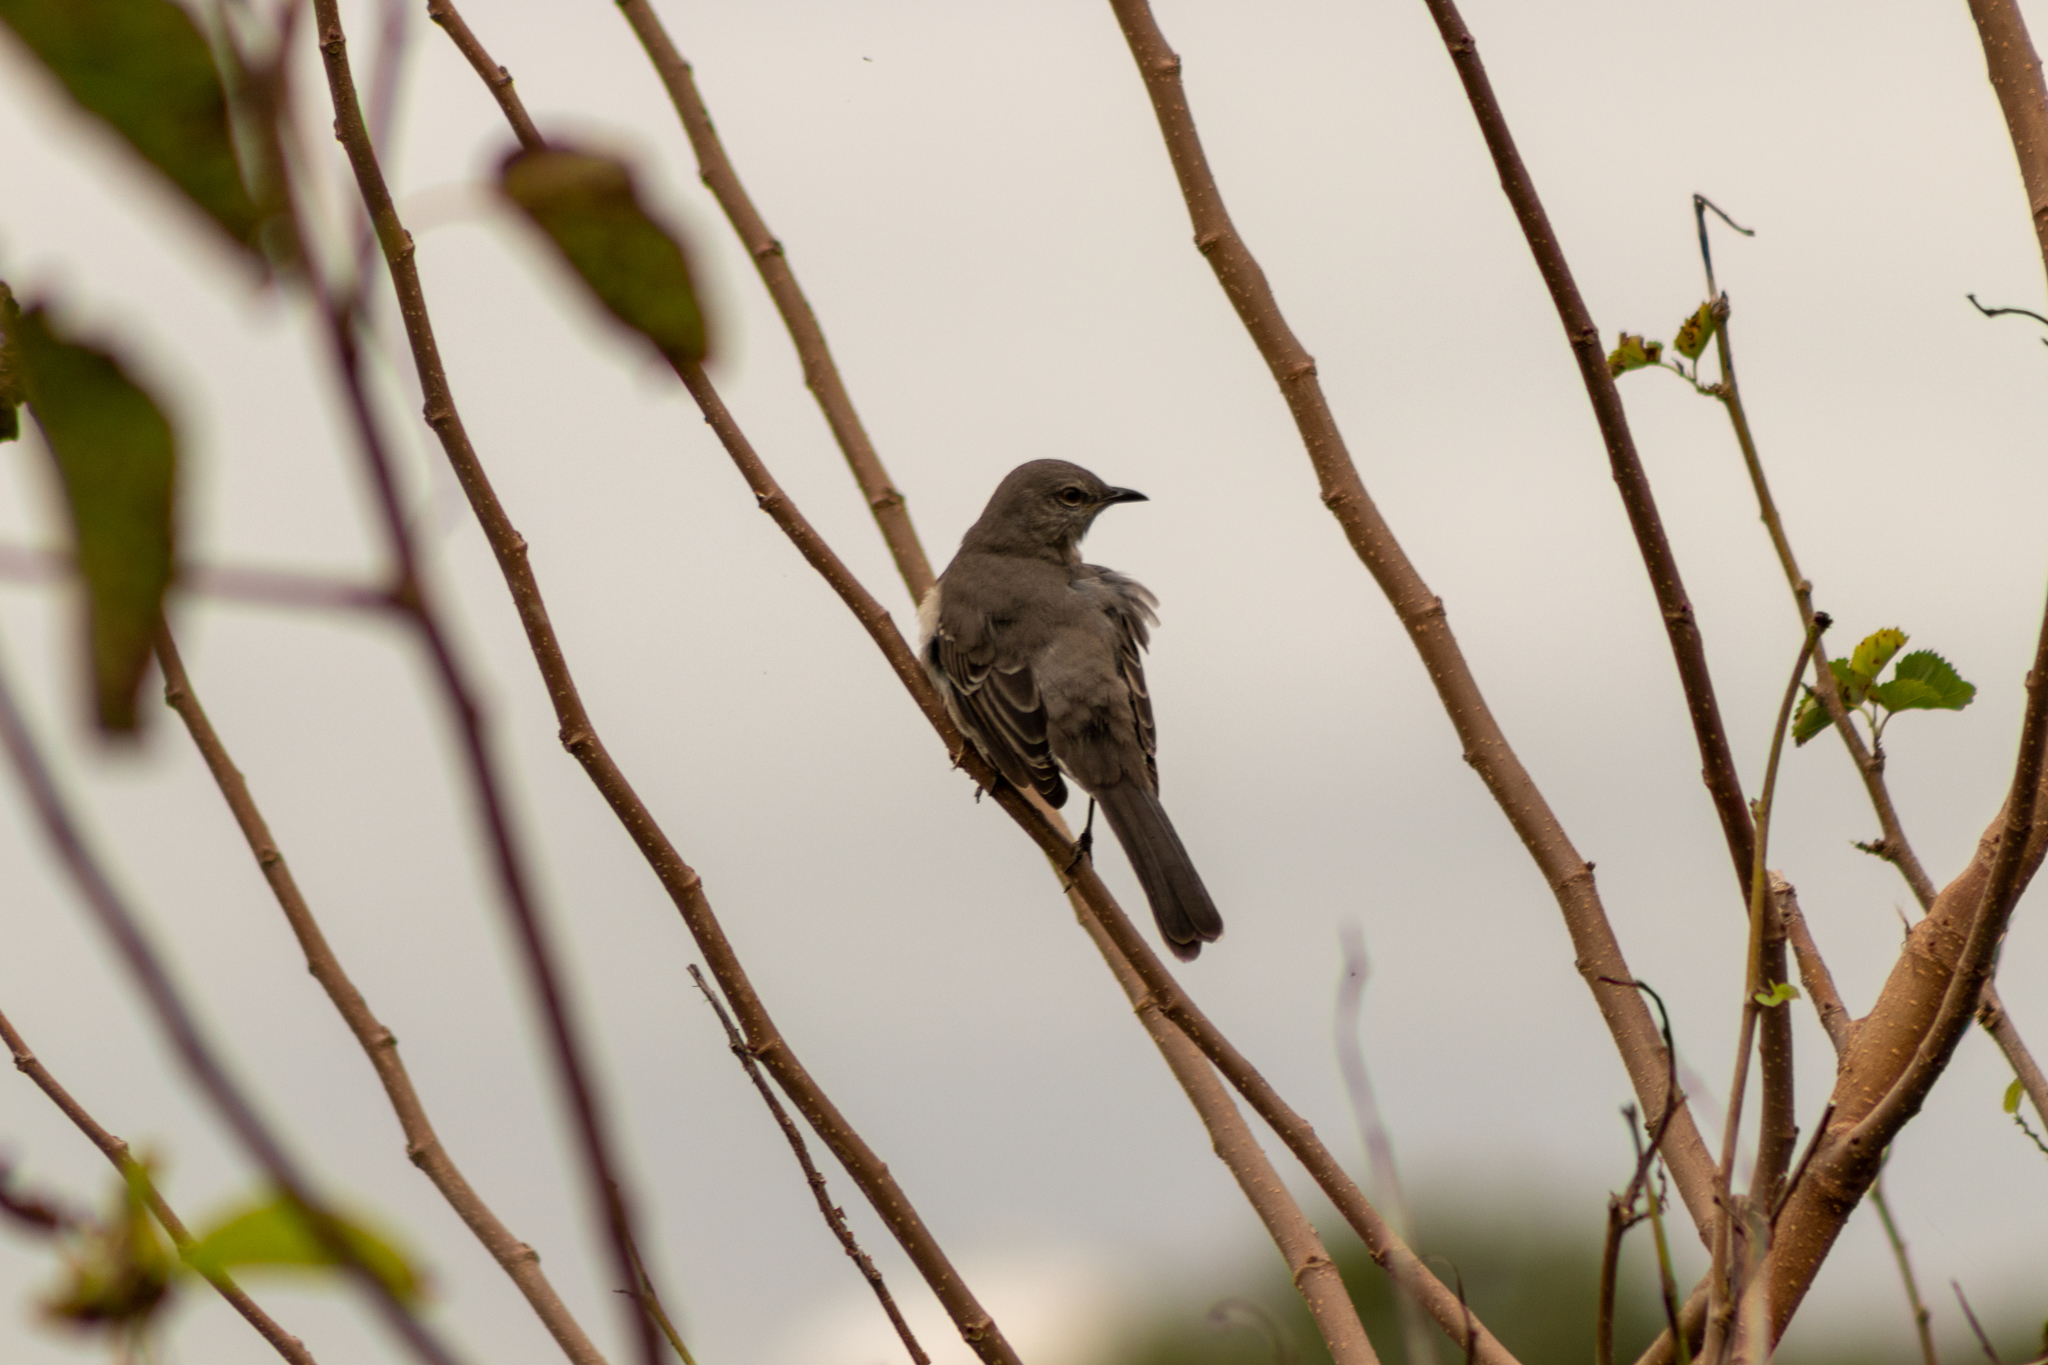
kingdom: Animalia
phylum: Chordata
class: Aves
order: Passeriformes
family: Mimidae
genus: Mimus
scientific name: Mimus polyglottos
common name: Northern mockingbird
